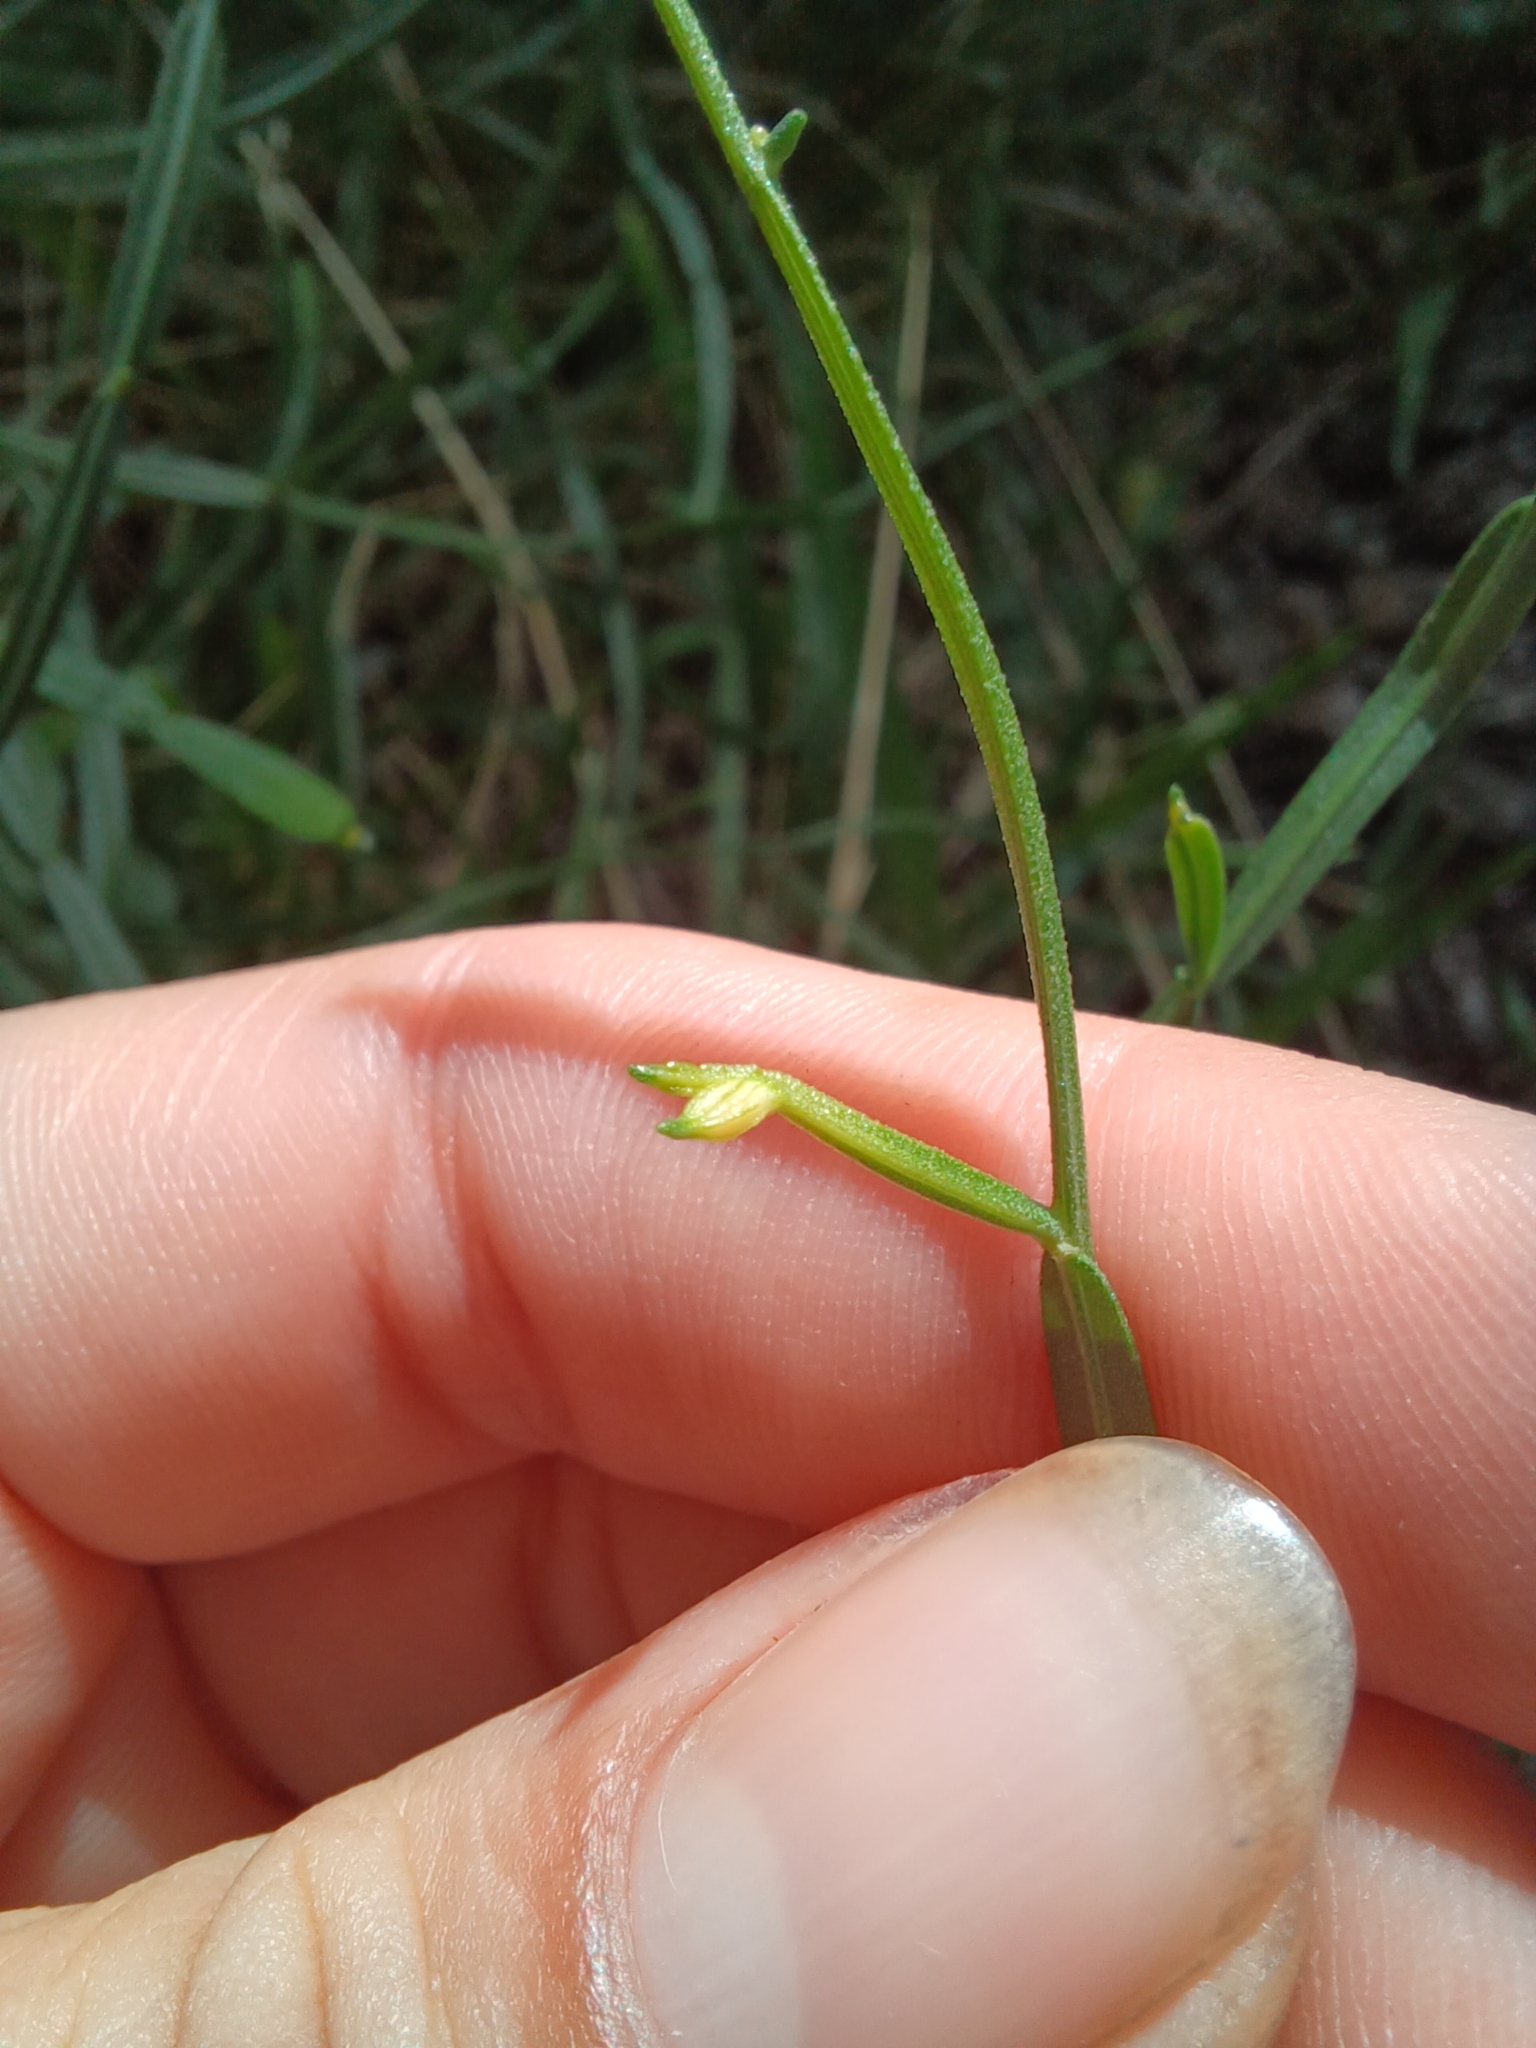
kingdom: Plantae
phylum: Tracheophyta
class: Magnoliopsida
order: Asterales
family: Asteraceae
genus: Baccharis
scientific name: Baccharis articulata
